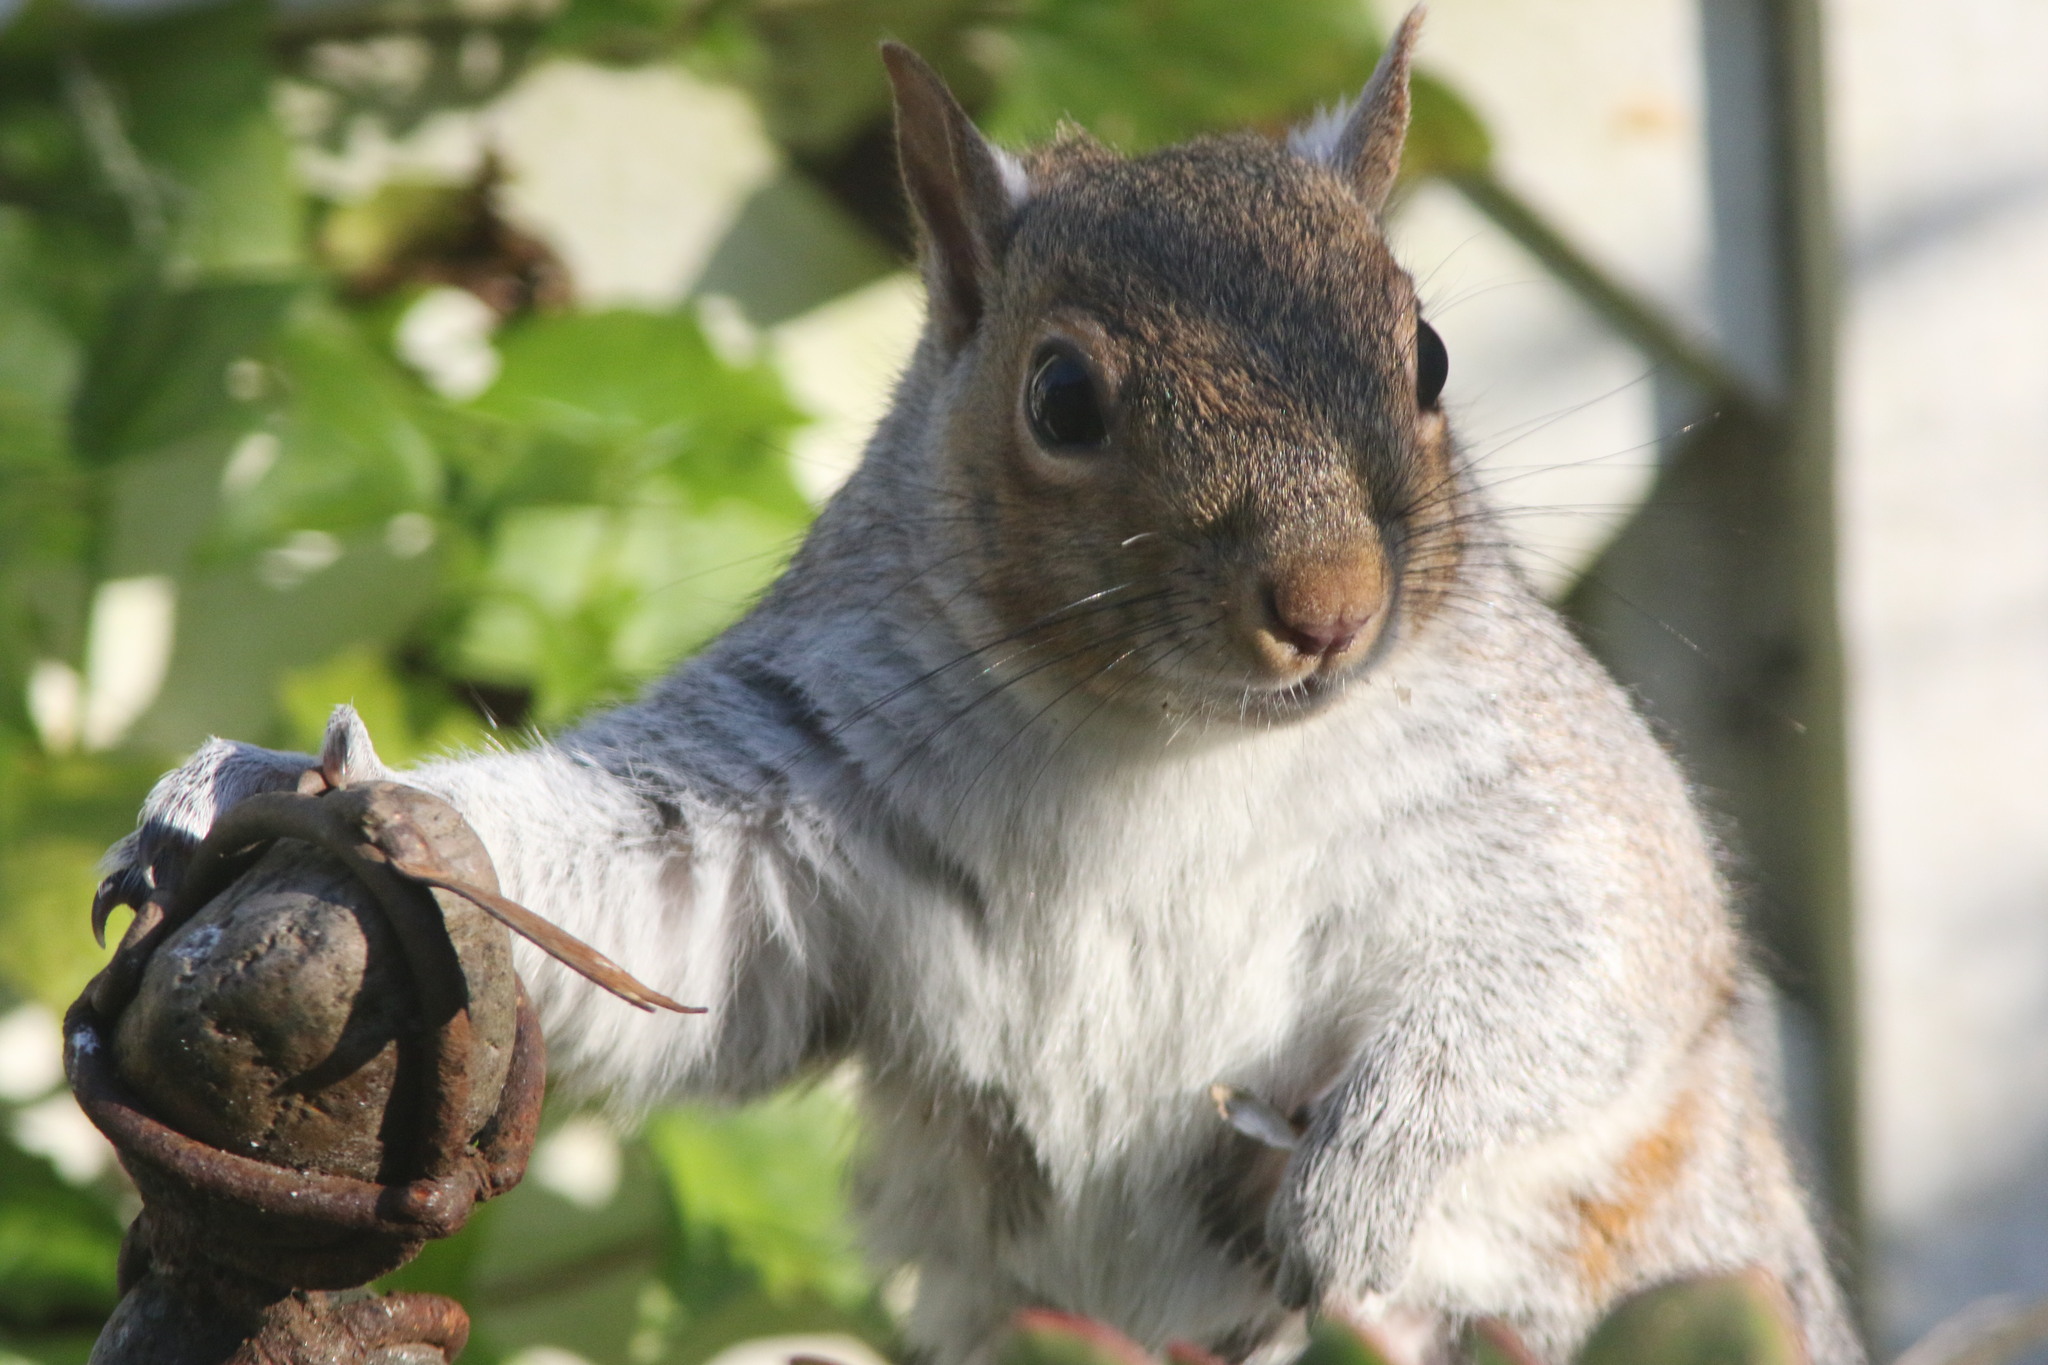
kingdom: Animalia
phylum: Chordata
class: Mammalia
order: Rodentia
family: Sciuridae
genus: Sciurus
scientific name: Sciurus carolinensis
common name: Eastern gray squirrel
